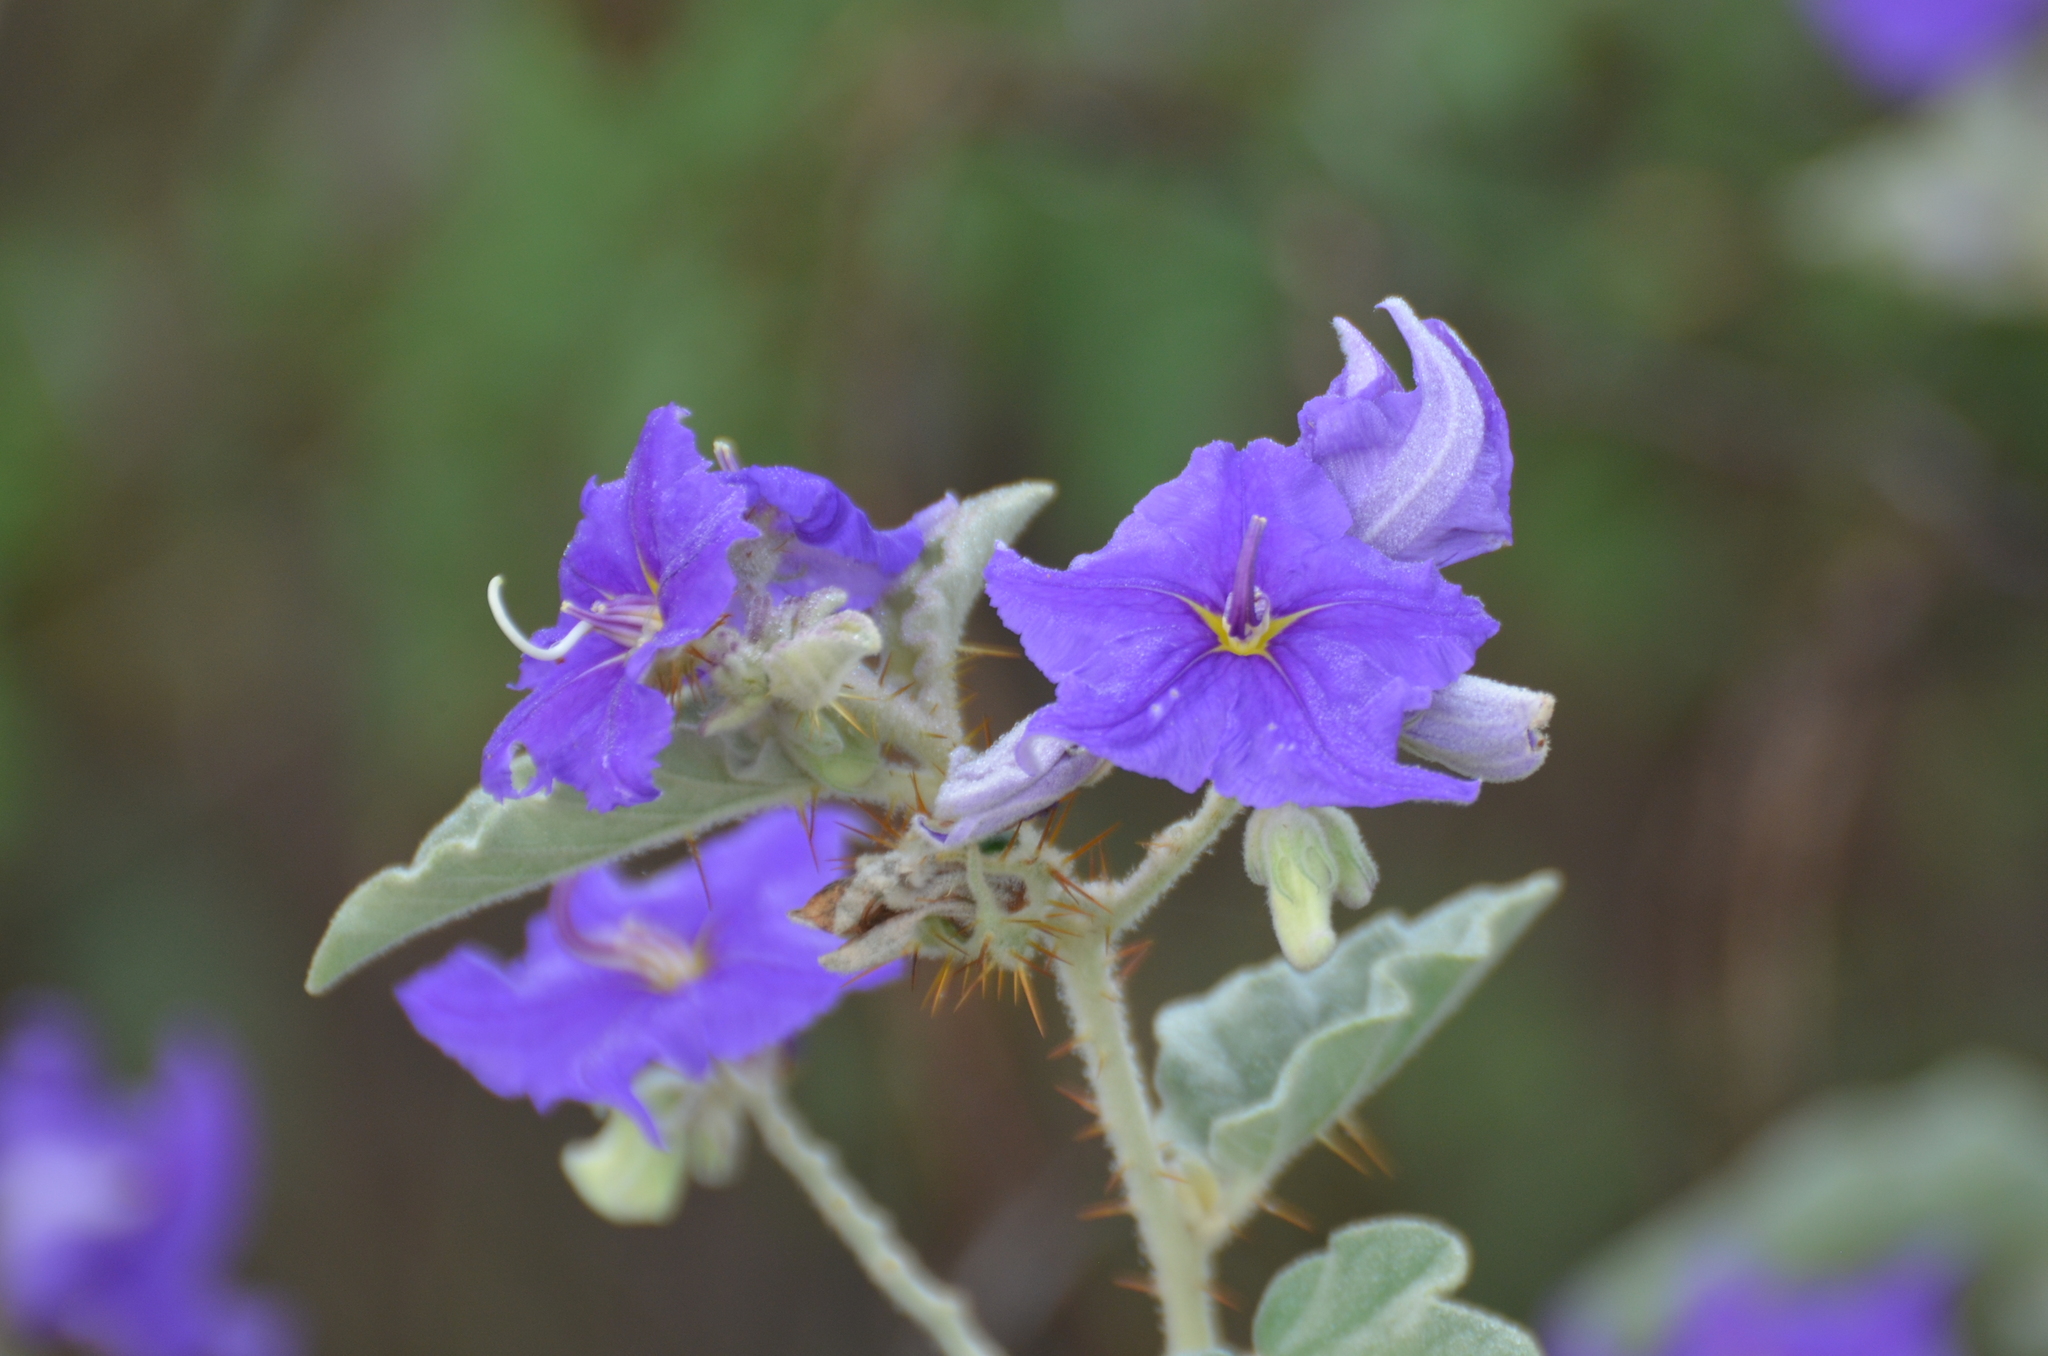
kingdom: Plantae
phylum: Tracheophyta
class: Magnoliopsida
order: Solanales
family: Solanaceae
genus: Solanum
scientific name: Solanum houstonii
